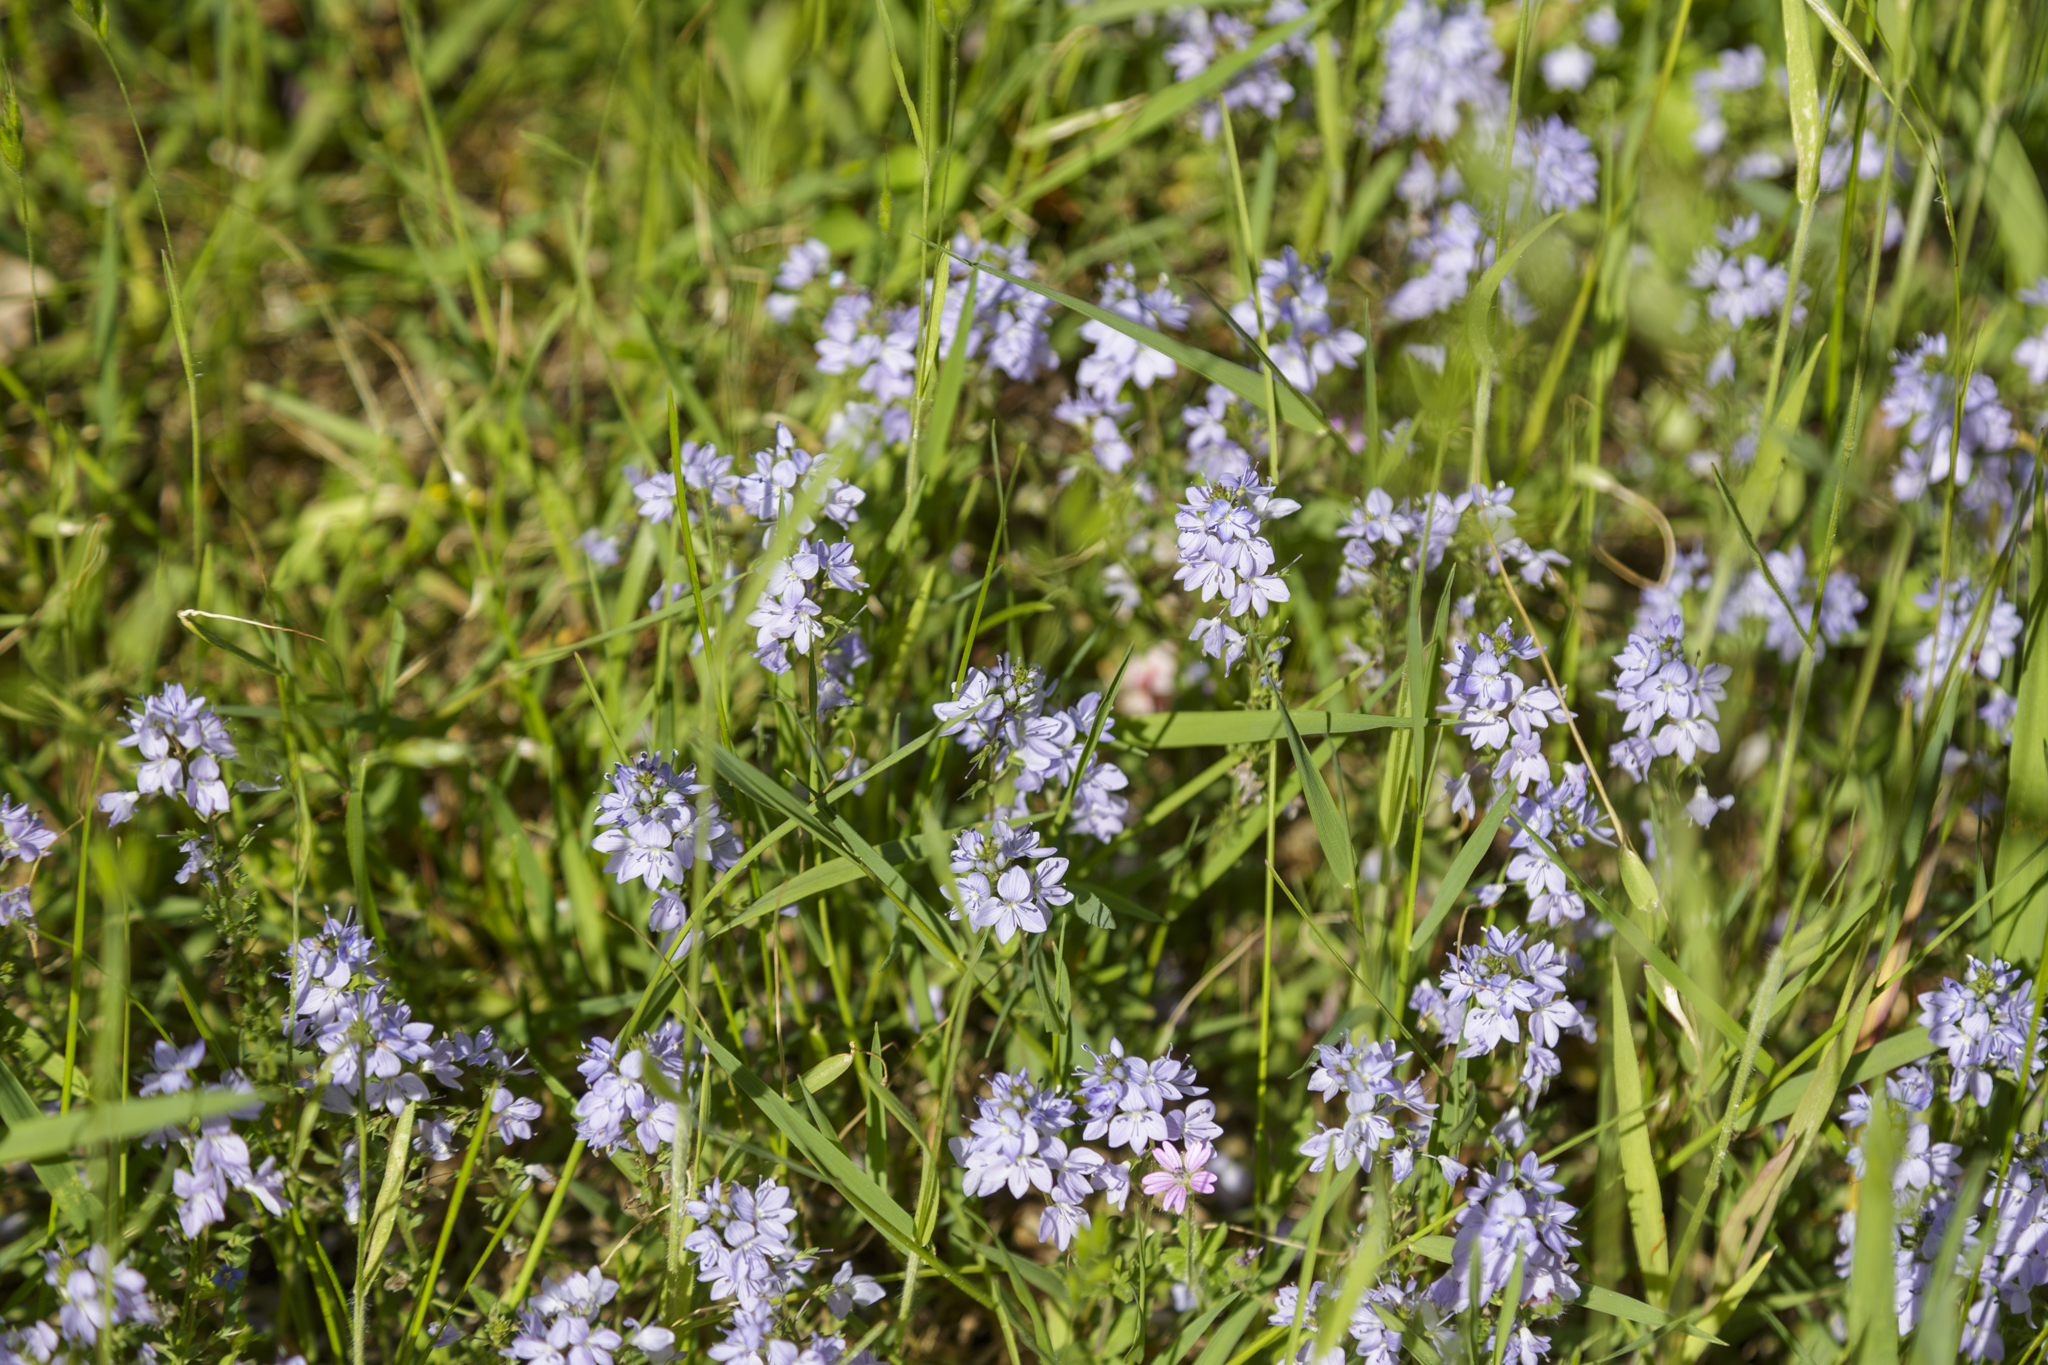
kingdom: Plantae
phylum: Tracheophyta
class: Magnoliopsida
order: Lamiales
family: Plantaginaceae
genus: Veronica
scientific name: Veronica prostrata
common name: Prostrate speedwell
